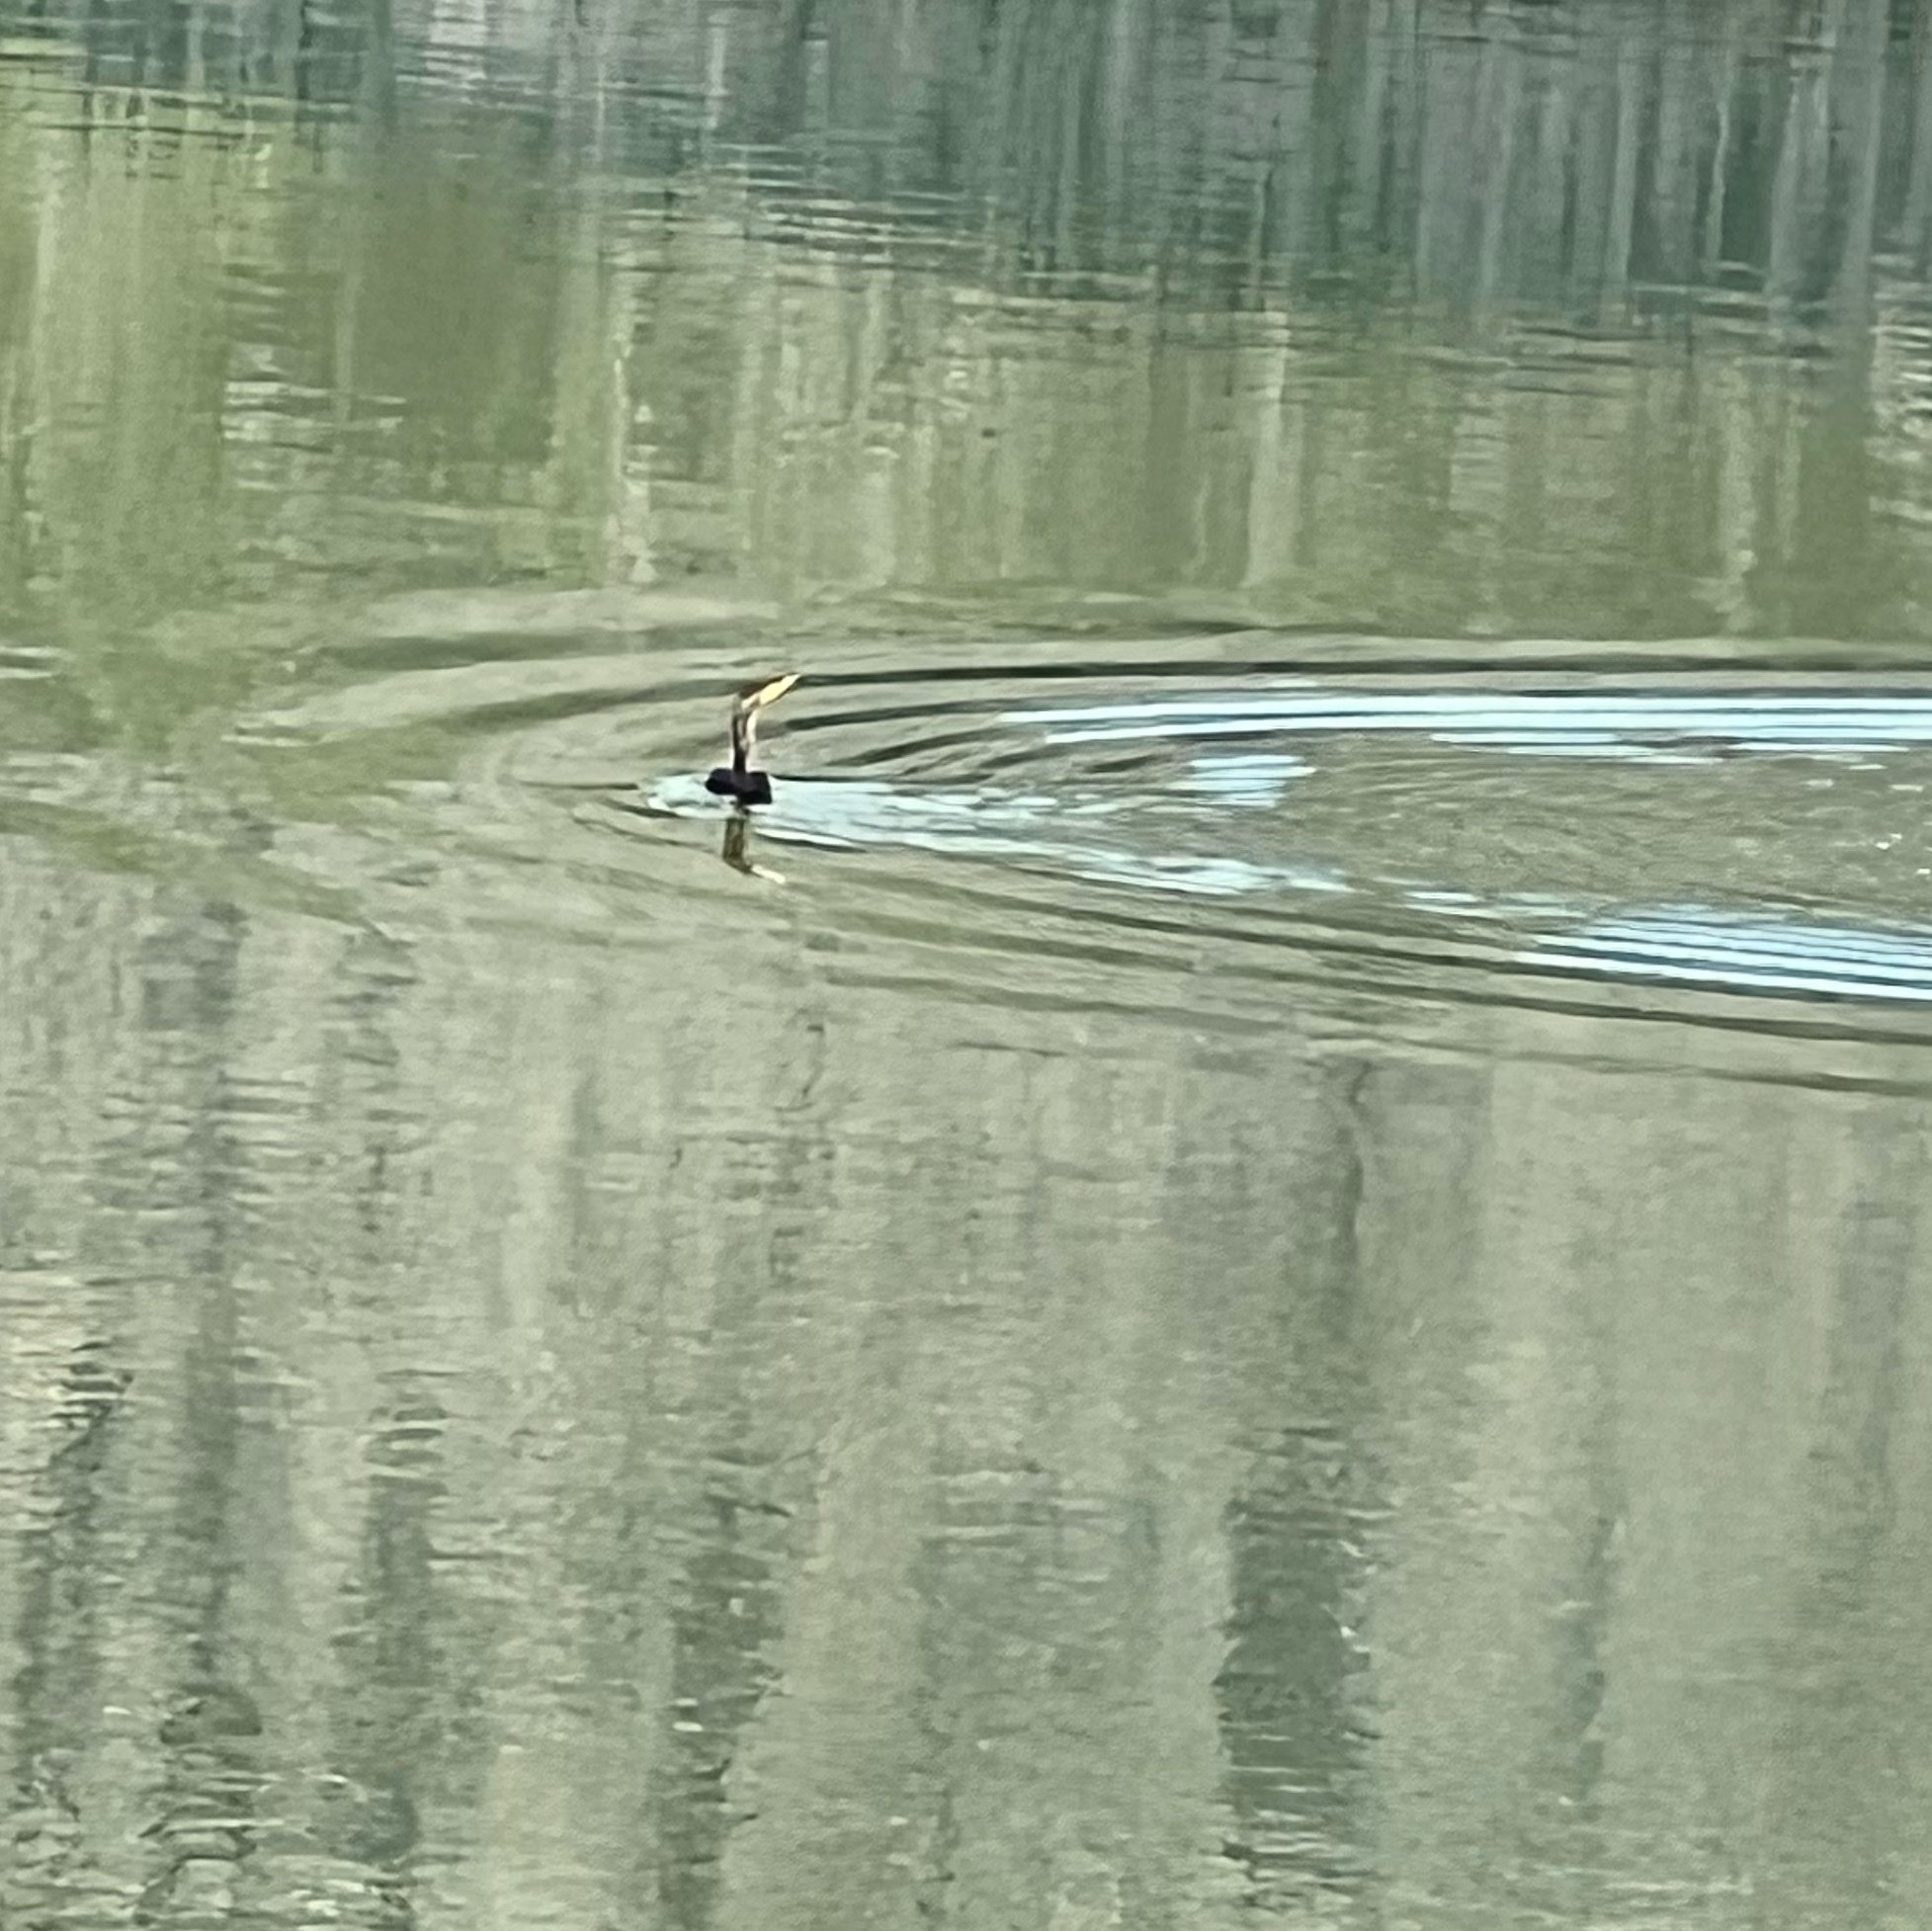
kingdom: Animalia
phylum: Chordata
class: Aves
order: Suliformes
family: Phalacrocoracidae
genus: Phalacrocorax
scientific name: Phalacrocorax auritus
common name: Double-crested cormorant
